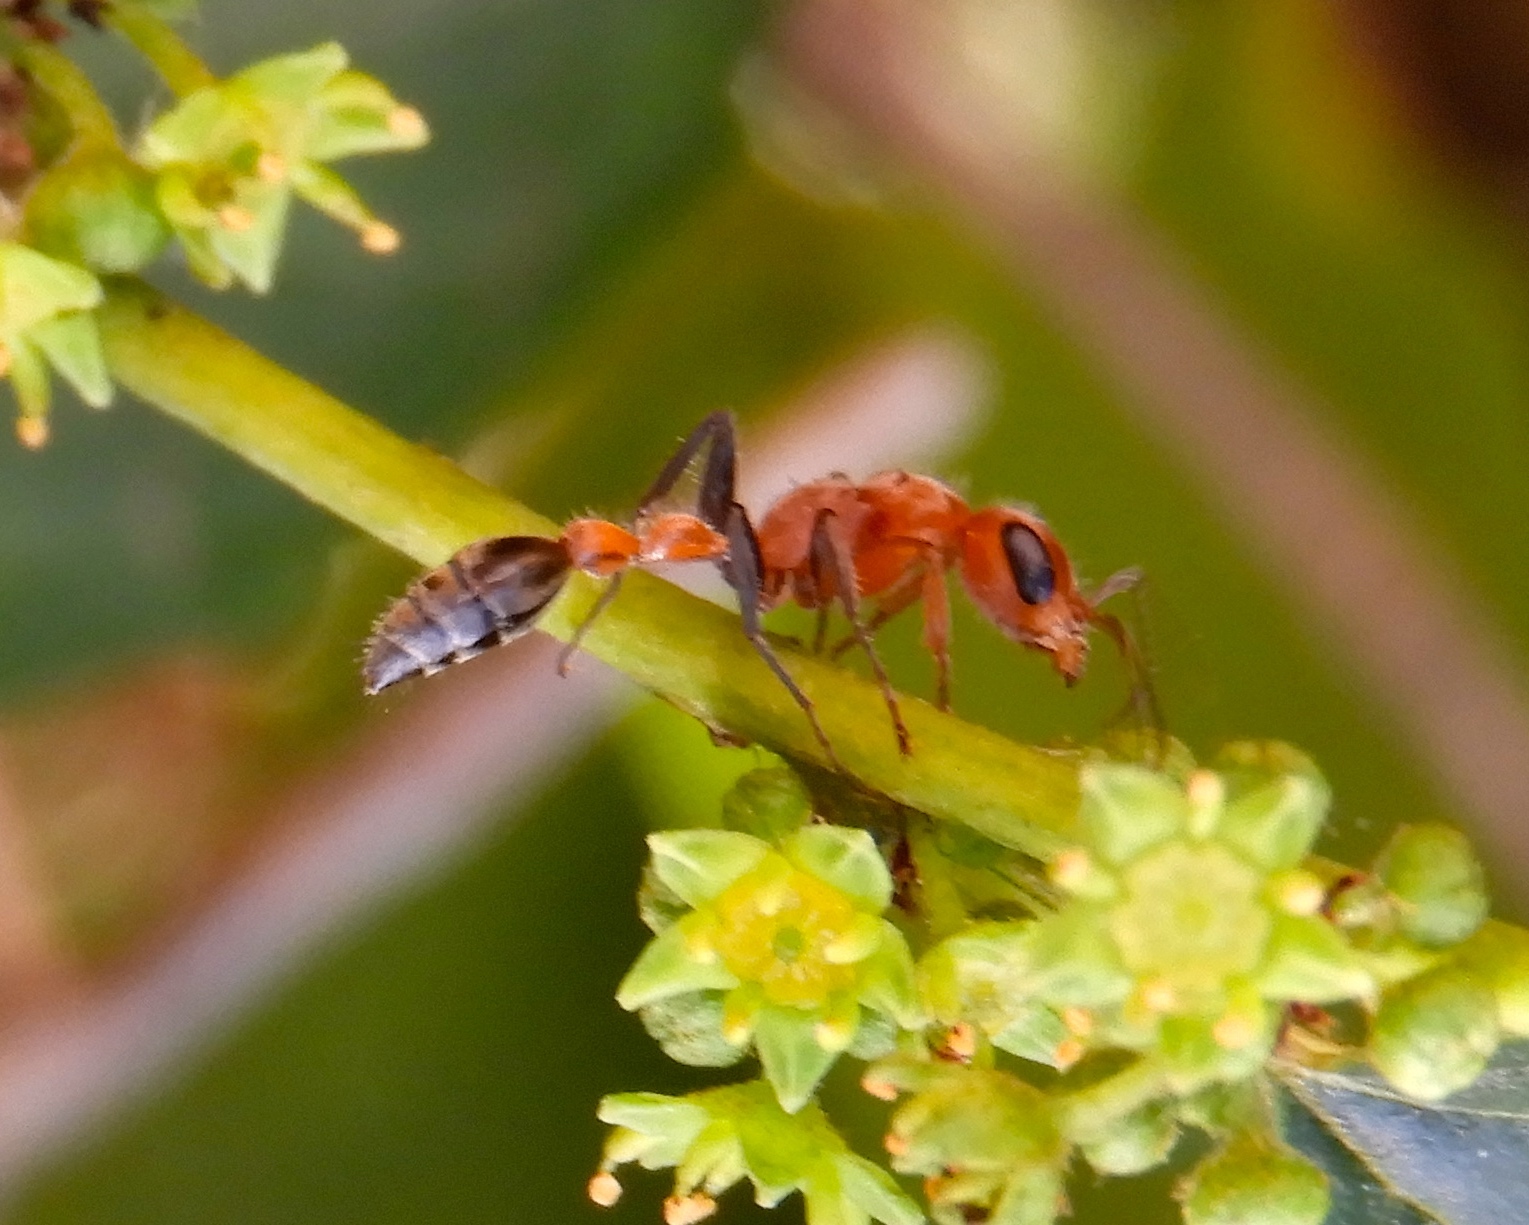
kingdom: Animalia
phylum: Arthropoda
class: Insecta
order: Hymenoptera
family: Formicidae
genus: Pseudomyrmex
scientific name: Pseudomyrmex gracilis
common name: Graceful twig ant
